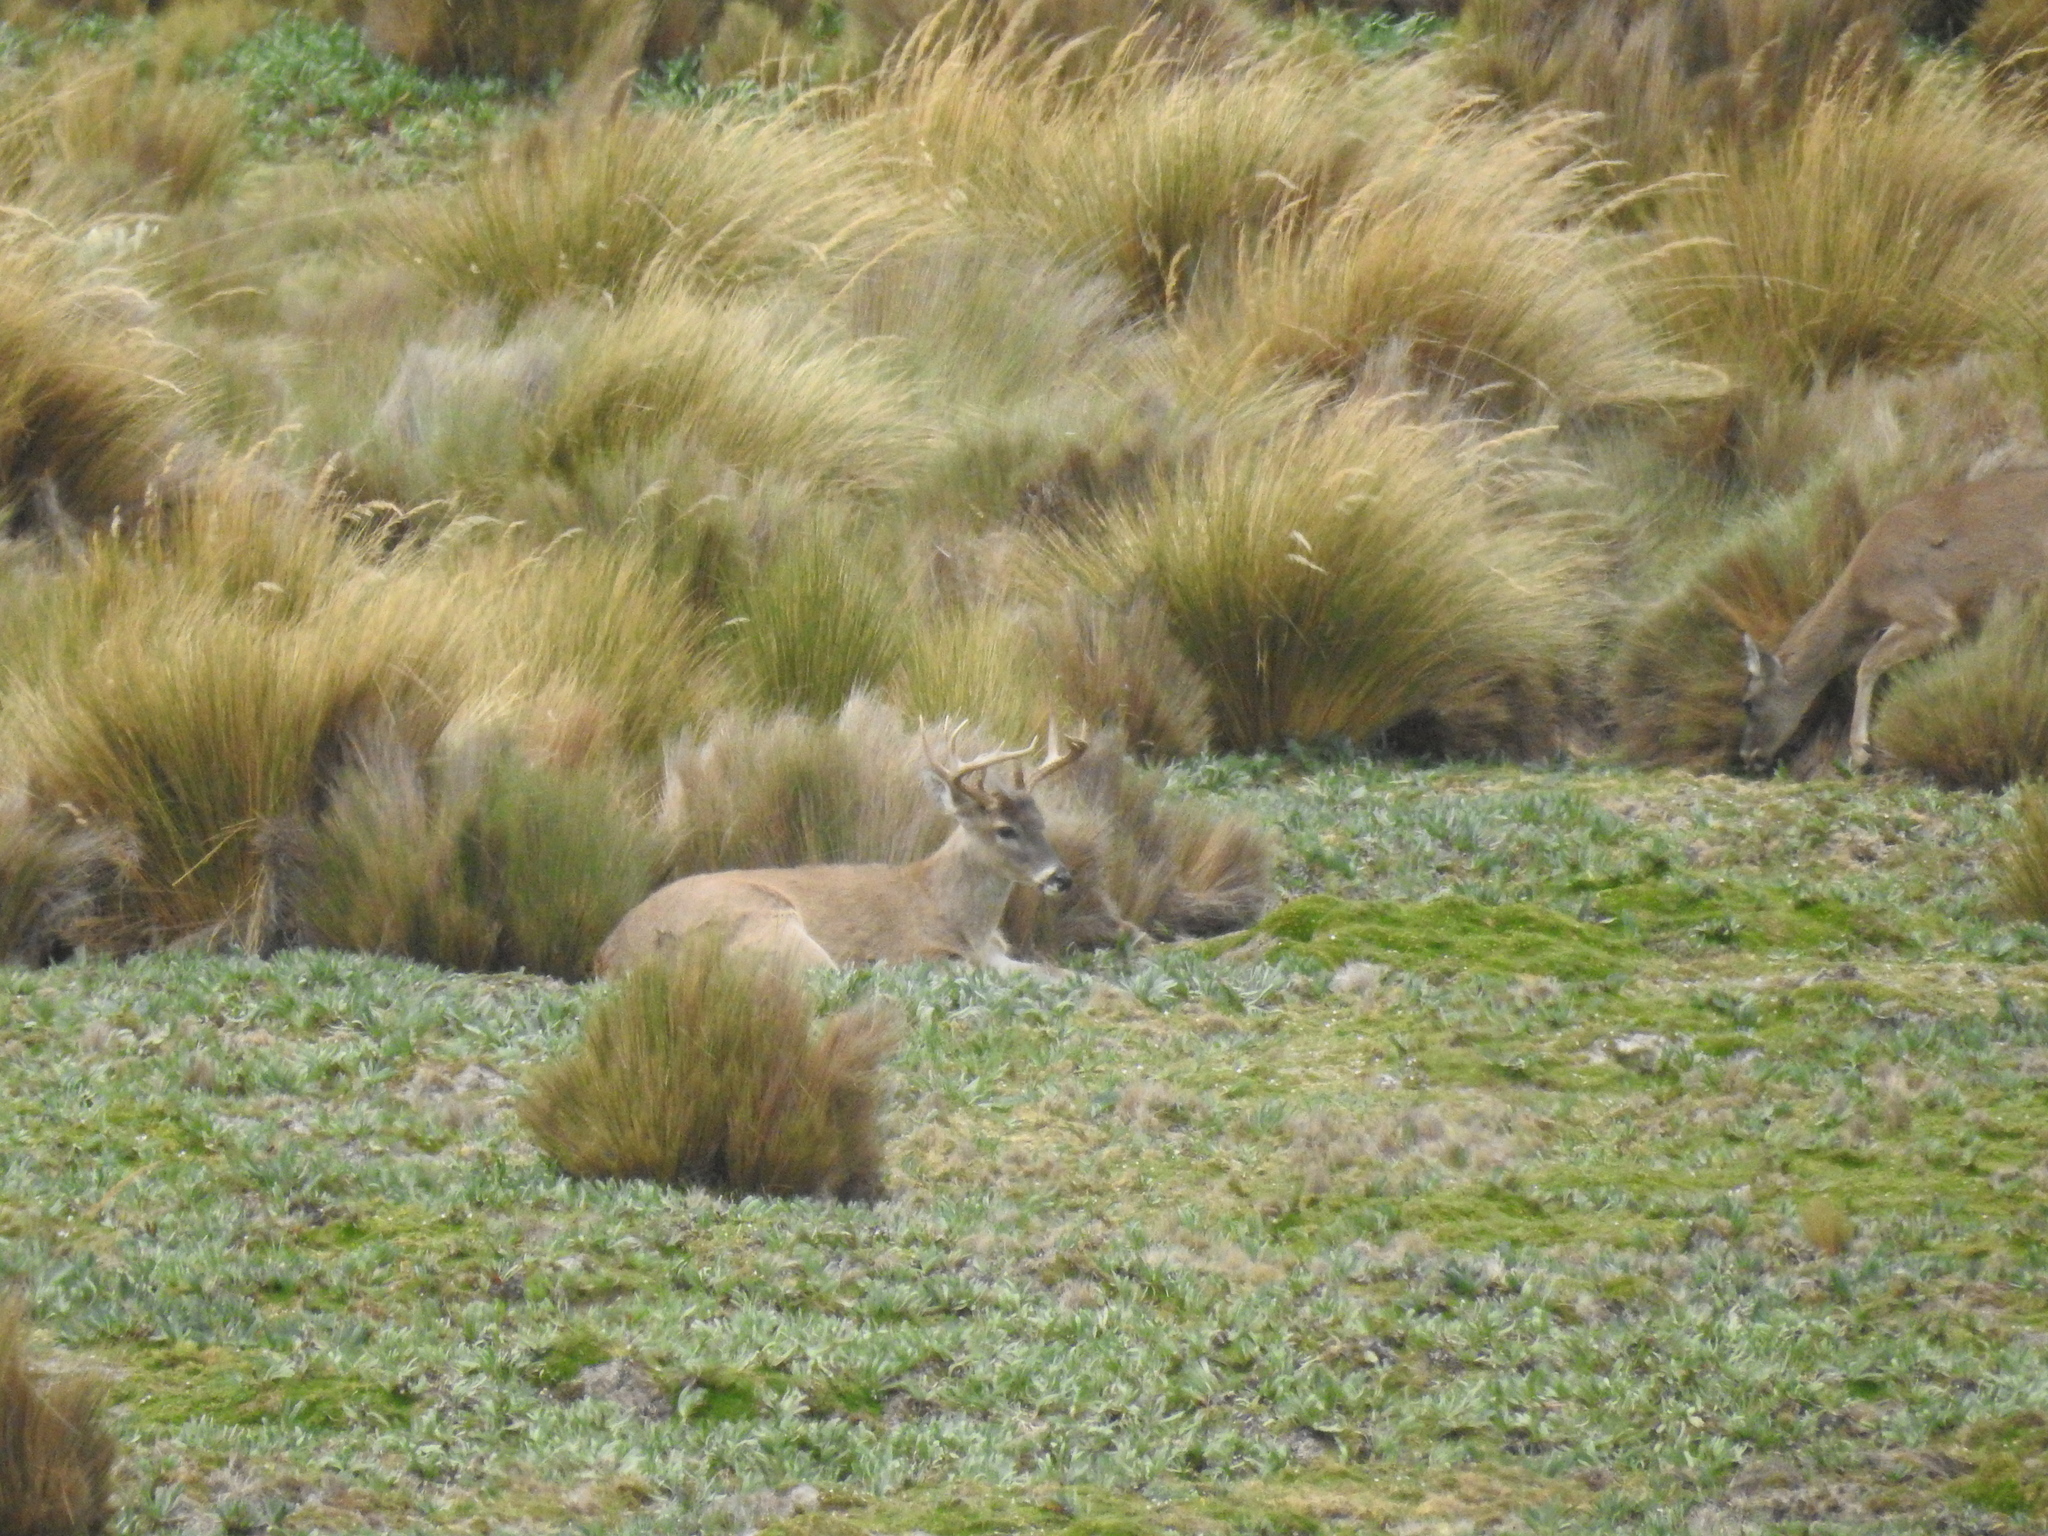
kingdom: Animalia
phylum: Chordata
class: Mammalia
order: Artiodactyla
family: Cervidae
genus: Odocoileus
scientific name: Odocoileus virginianus
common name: White-tailed deer
